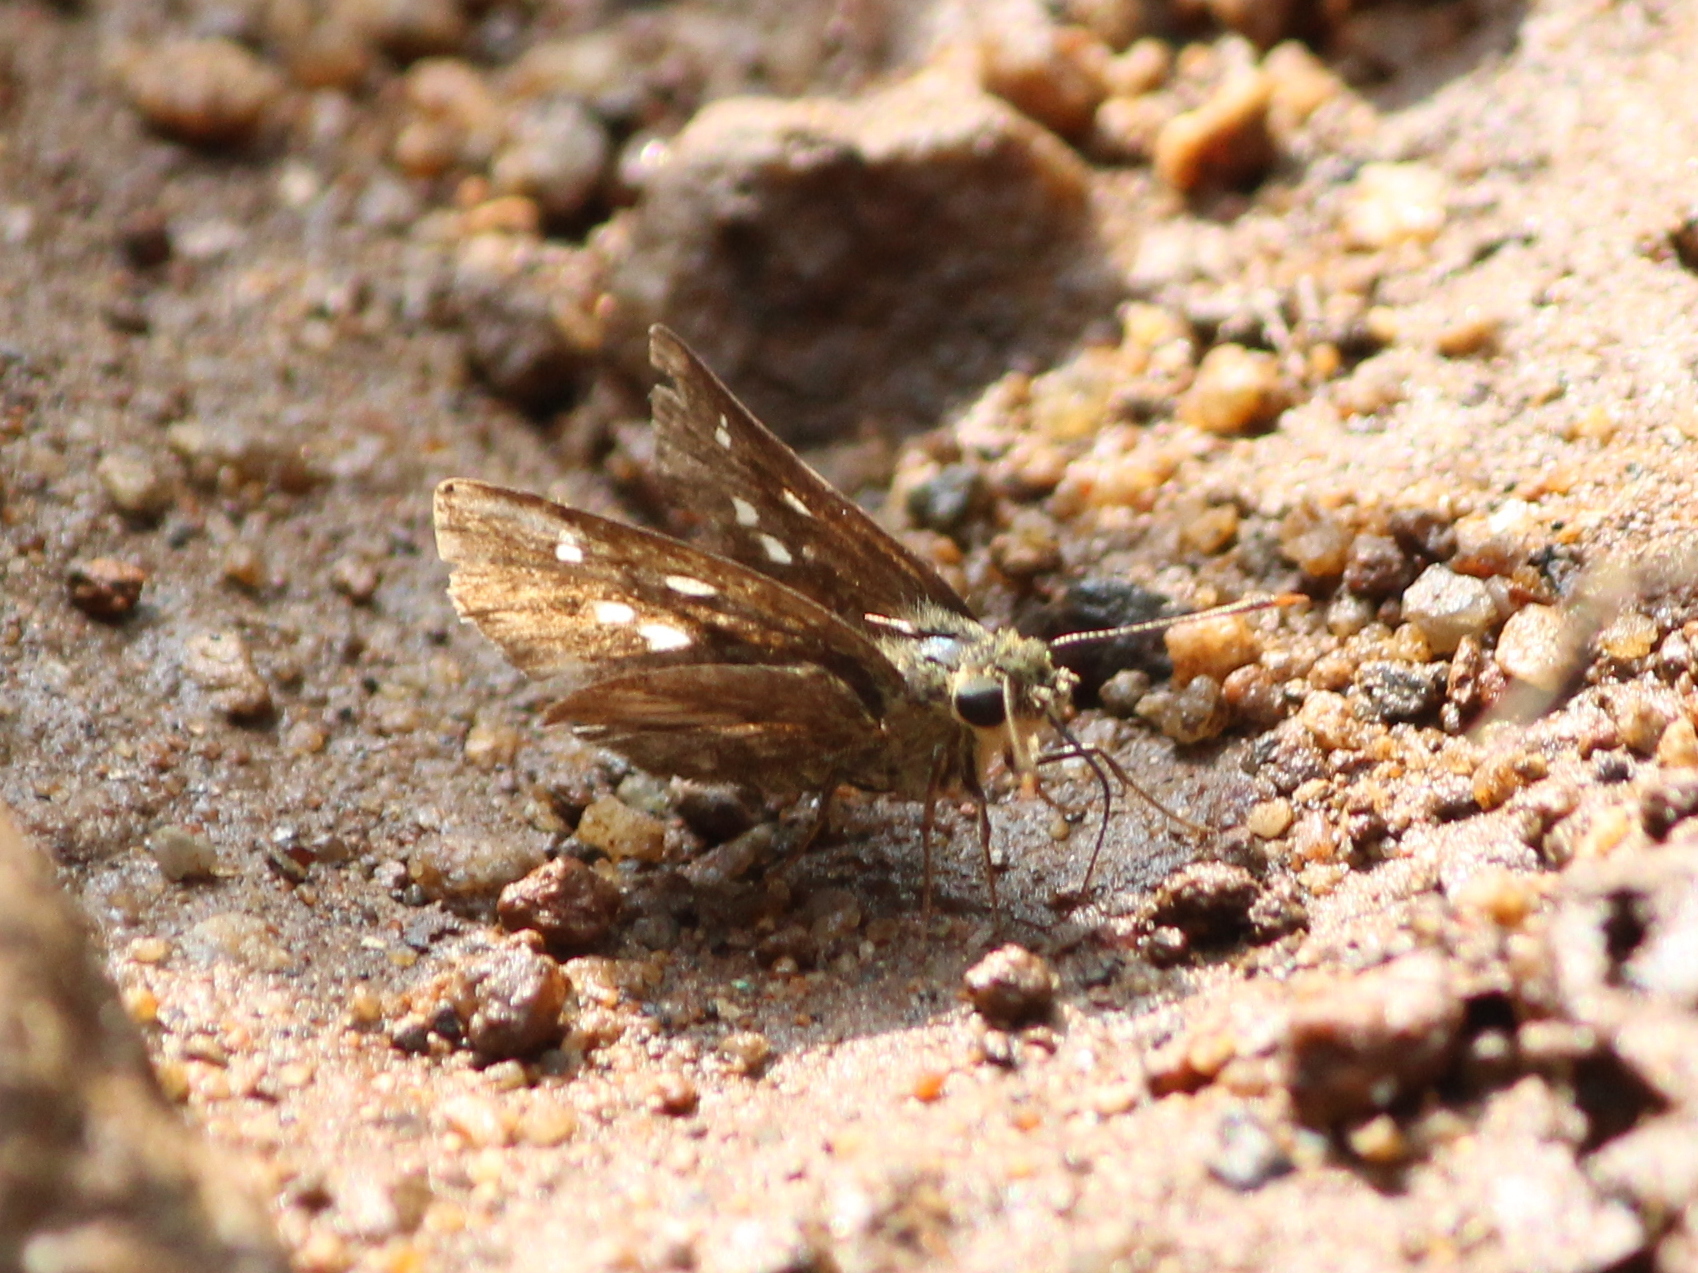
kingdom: Animalia
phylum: Arthropoda
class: Insecta
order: Lepidoptera
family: Hesperiidae
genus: Halpe
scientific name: Halpe homolea
